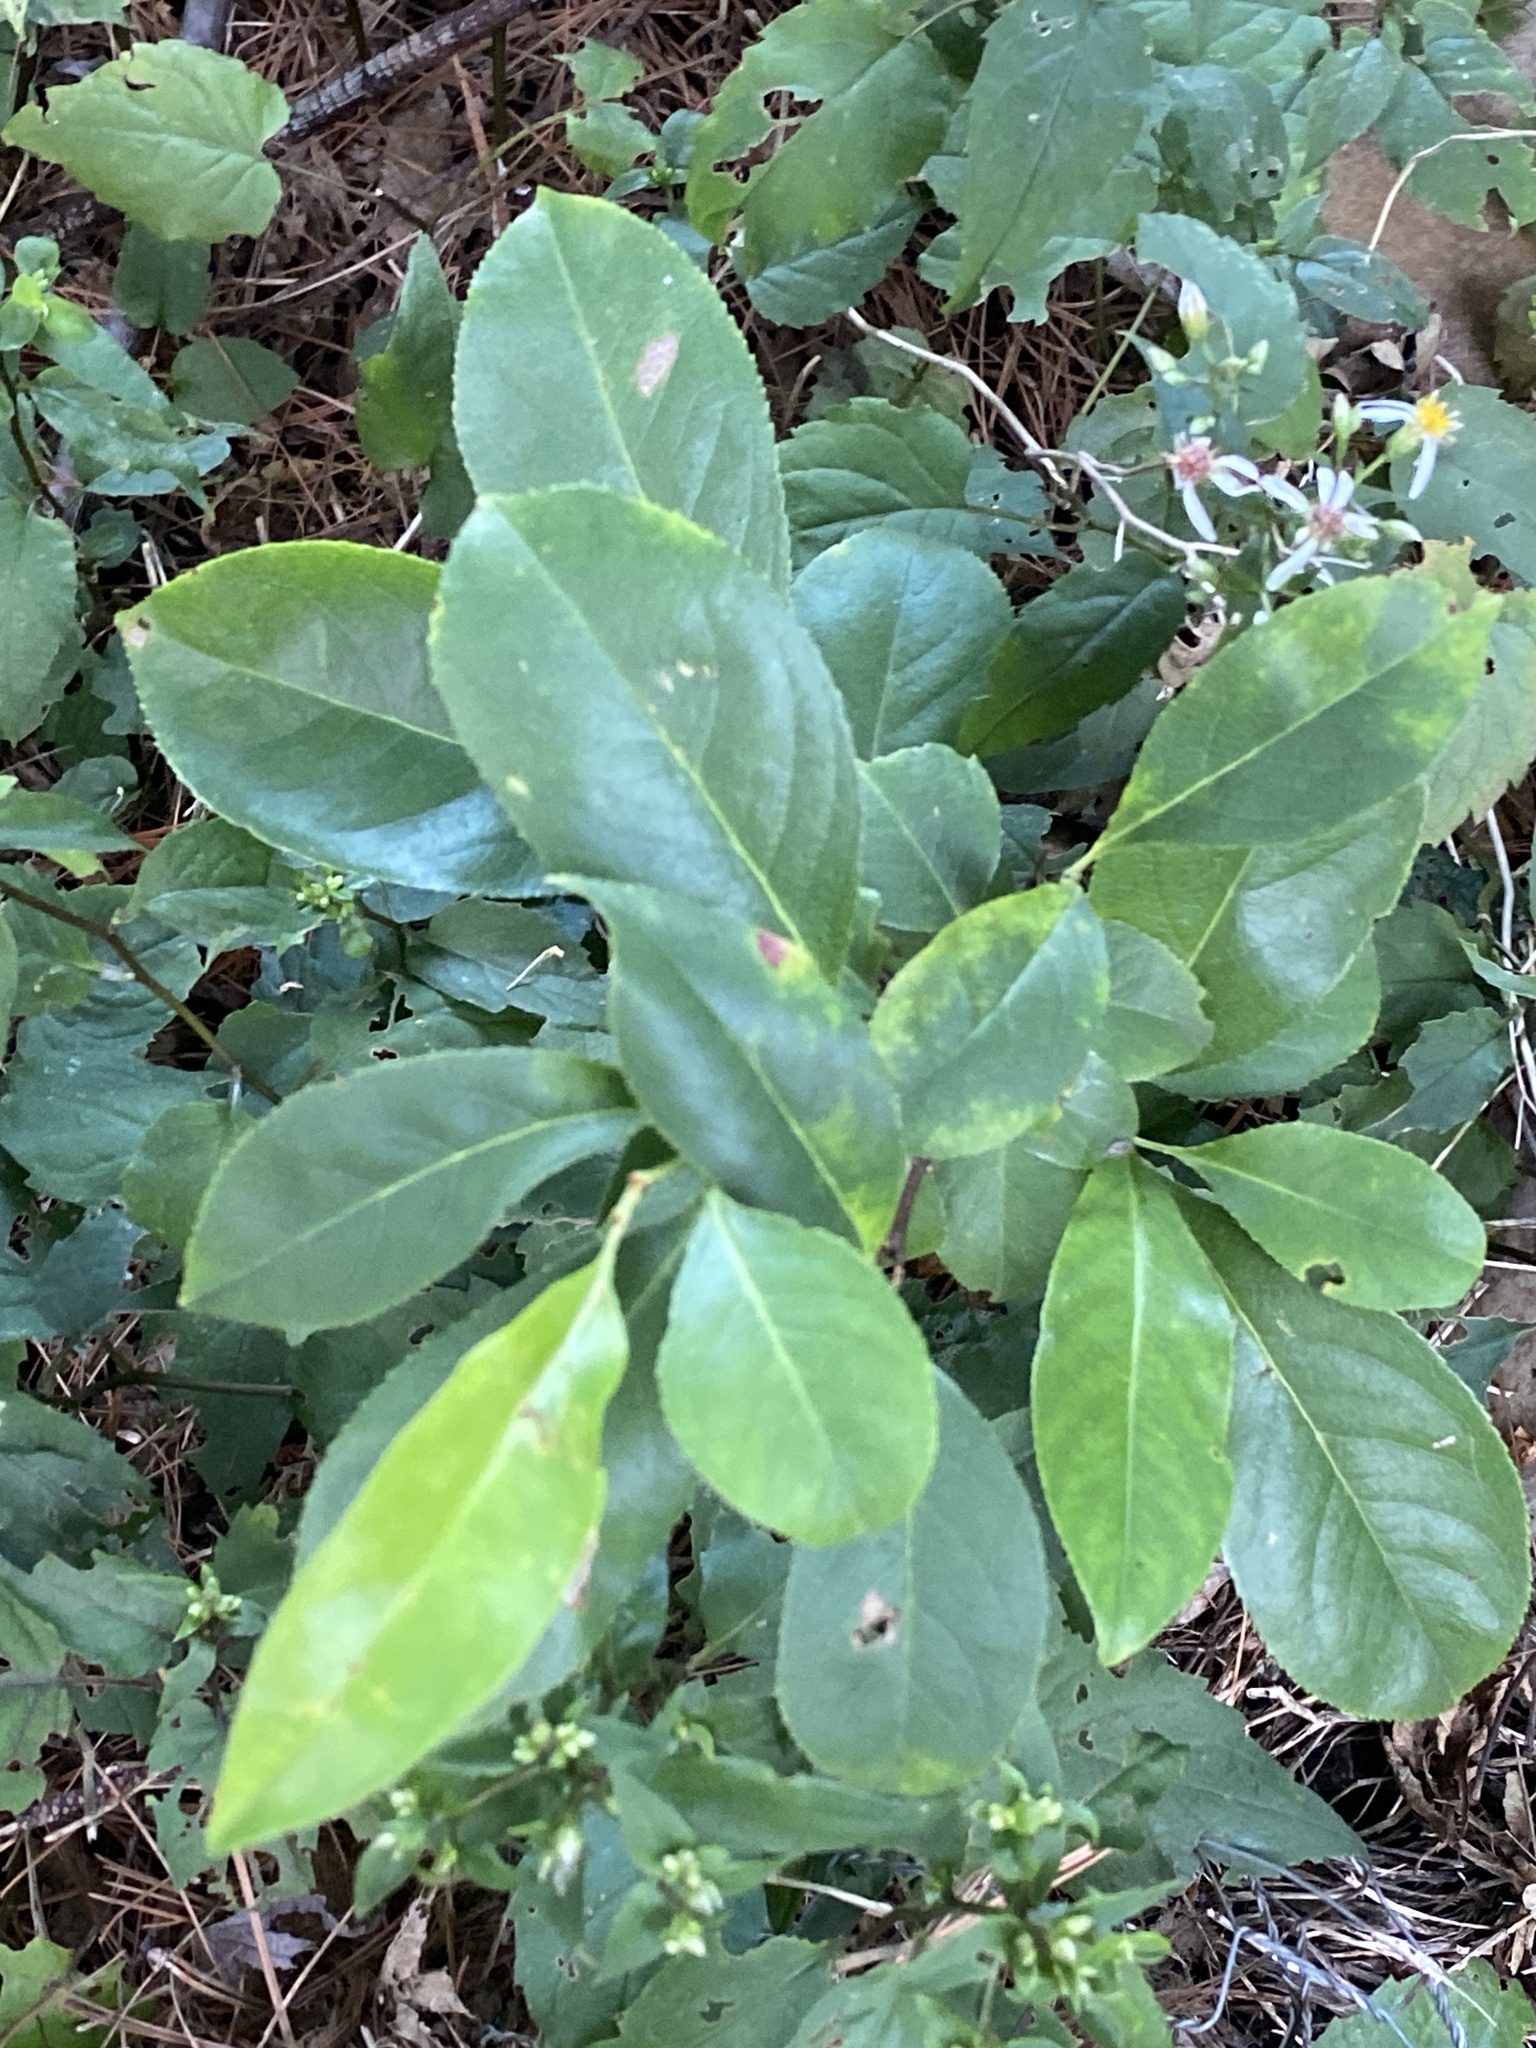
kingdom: Plantae
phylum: Tracheophyta
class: Magnoliopsida
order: Rosales
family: Rosaceae
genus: Prunus
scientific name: Prunus serotina
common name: Black cherry
